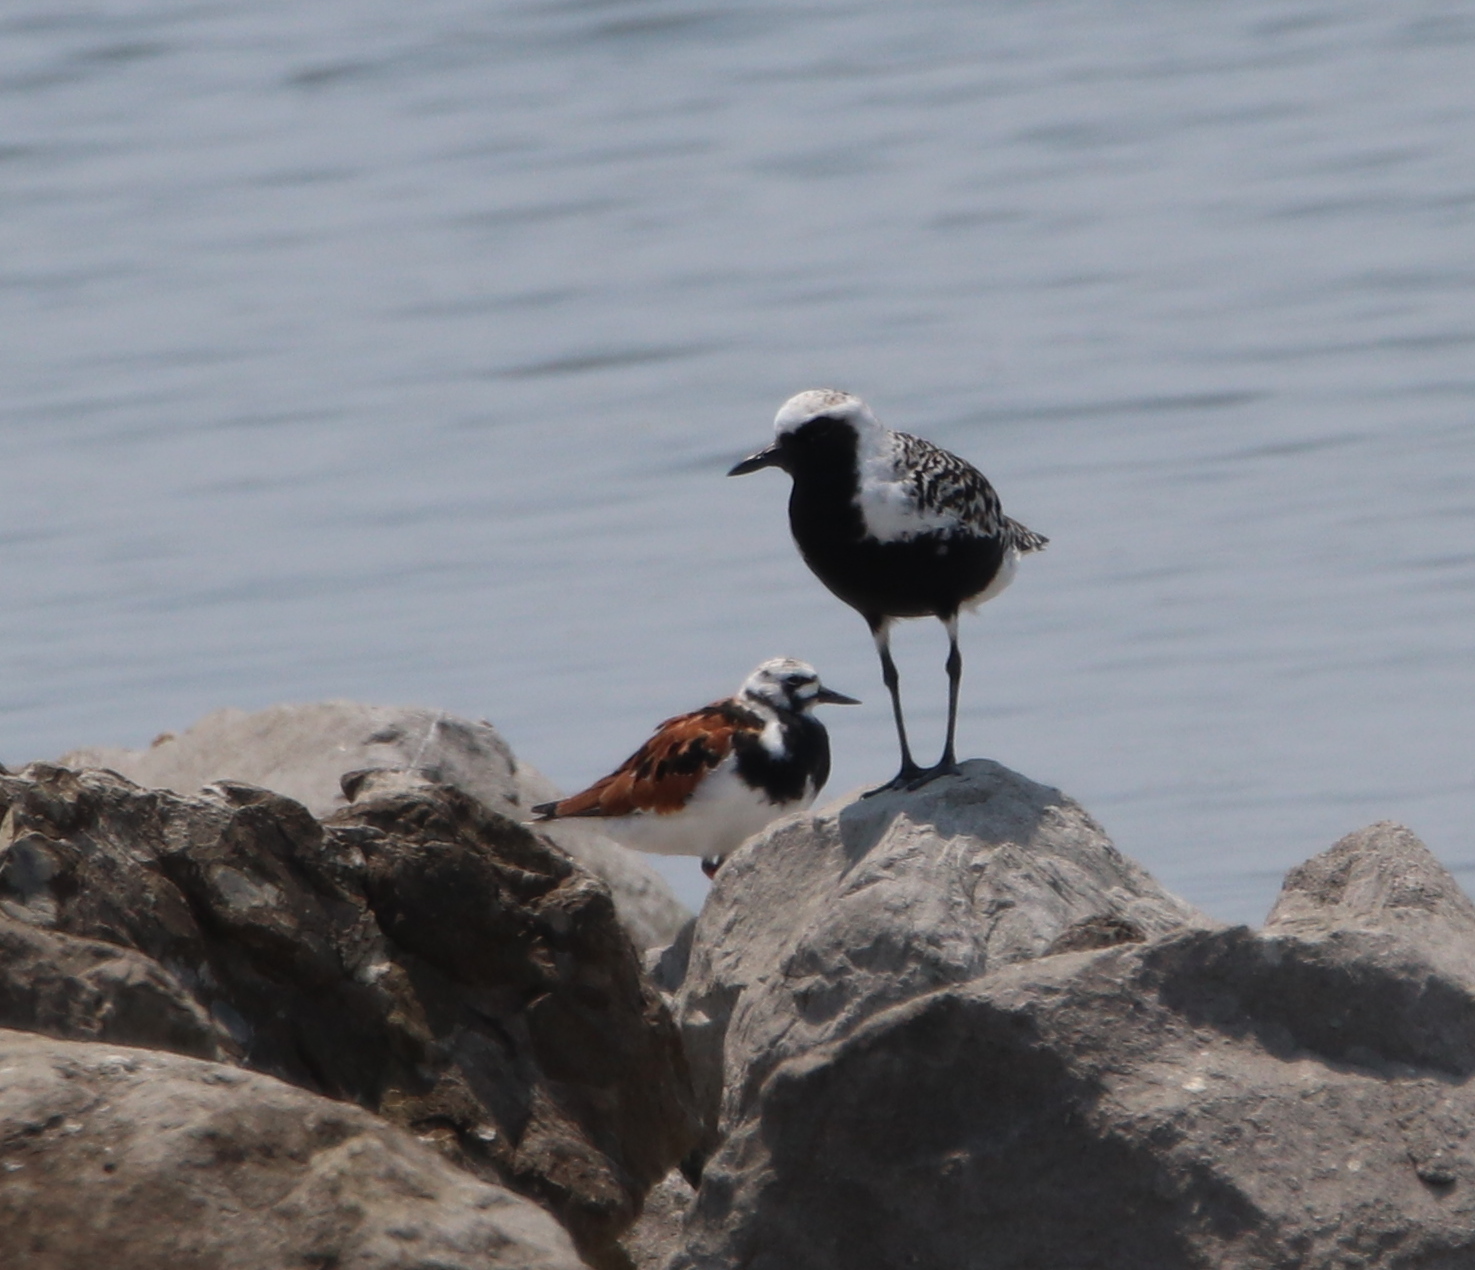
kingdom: Animalia
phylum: Chordata
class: Aves
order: Charadriiformes
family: Charadriidae
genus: Pluvialis
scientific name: Pluvialis squatarola
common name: Grey plover
